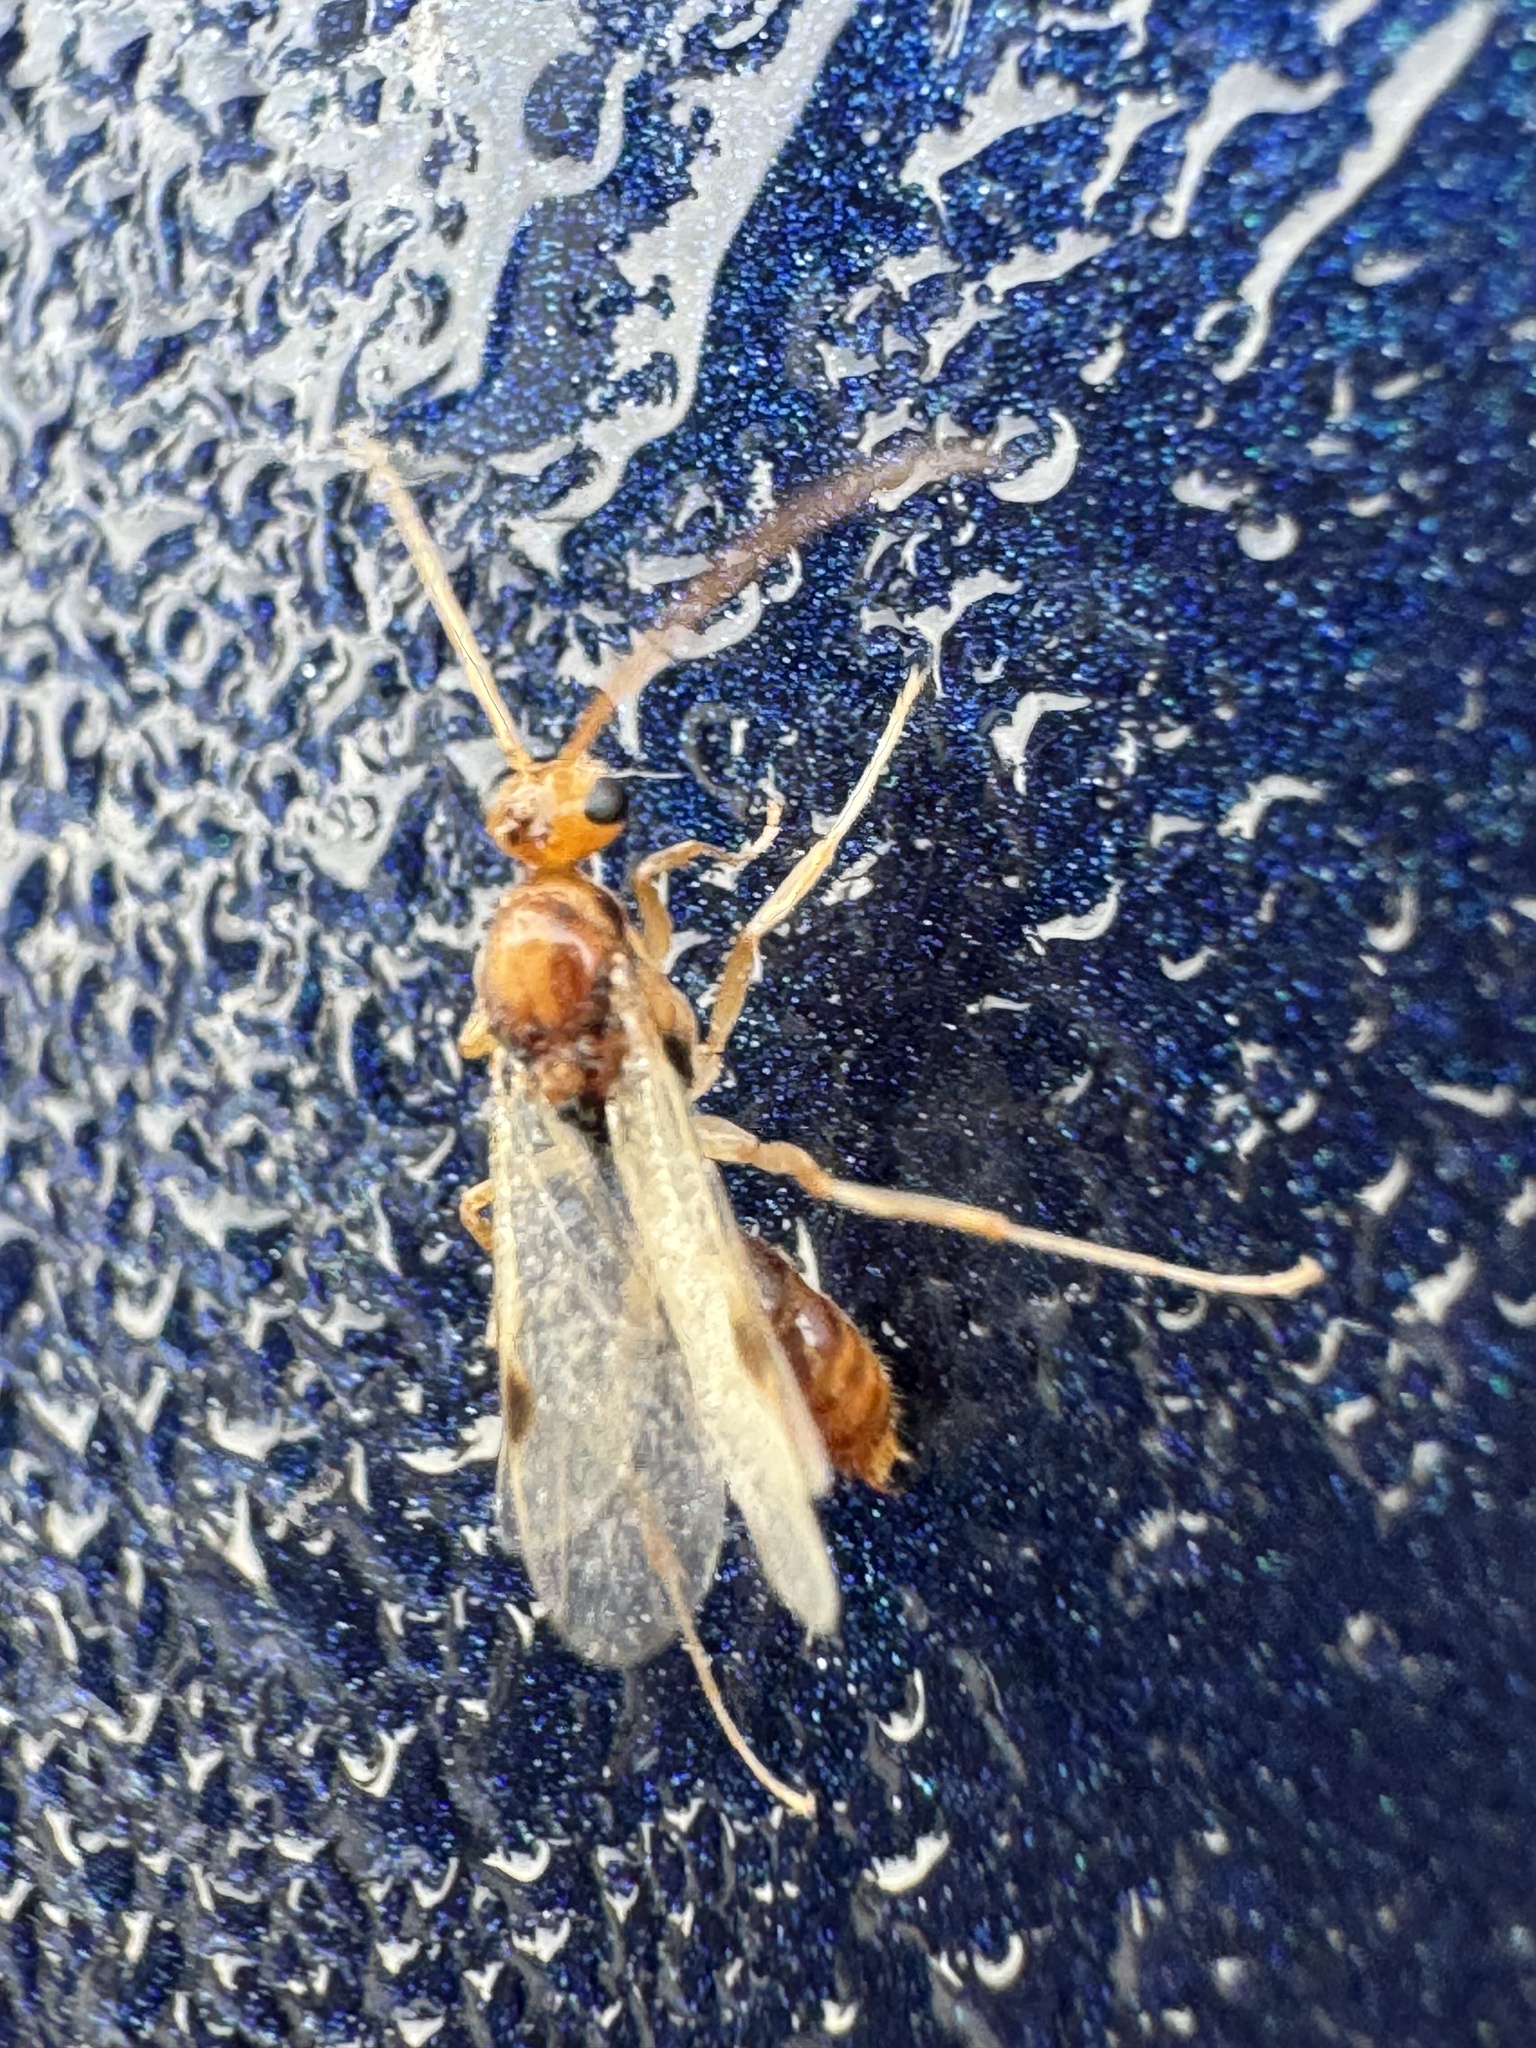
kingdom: Animalia
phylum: Arthropoda
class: Insecta
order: Hymenoptera
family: Formicidae
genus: Odontomachus
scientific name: Odontomachus ruginodis
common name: Trapjaw ant
